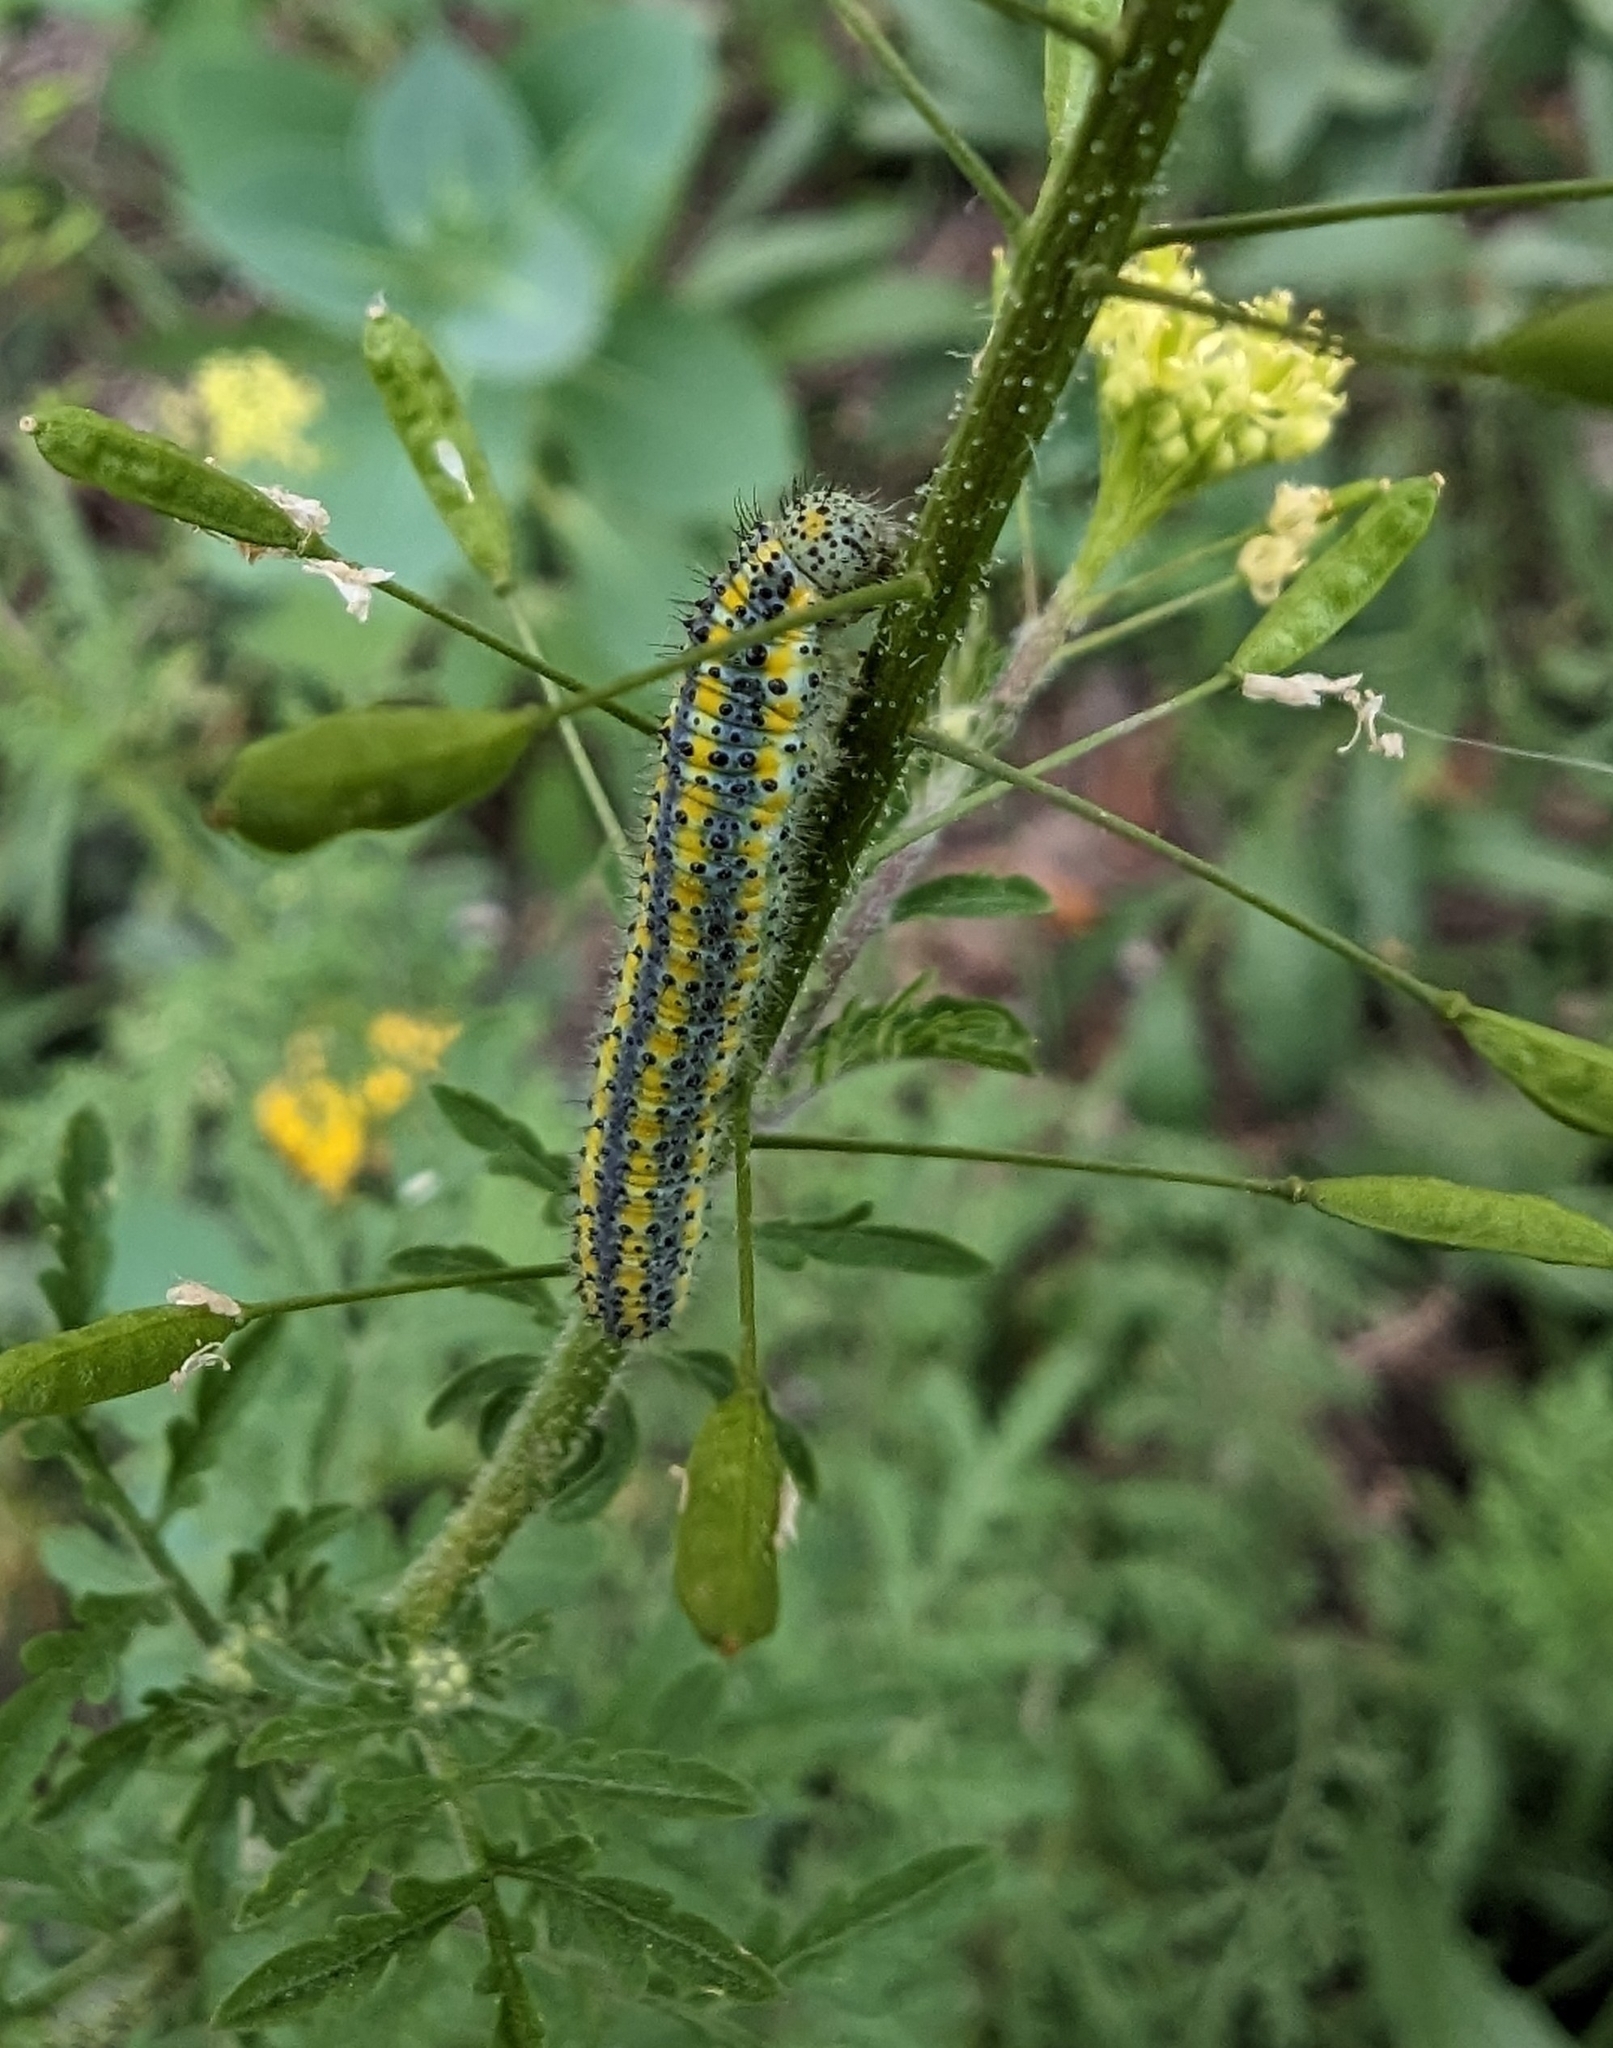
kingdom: Animalia
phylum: Arthropoda
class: Insecta
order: Lepidoptera
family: Pieridae
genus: Pontia
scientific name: Pontia protodice
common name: Checkered white
